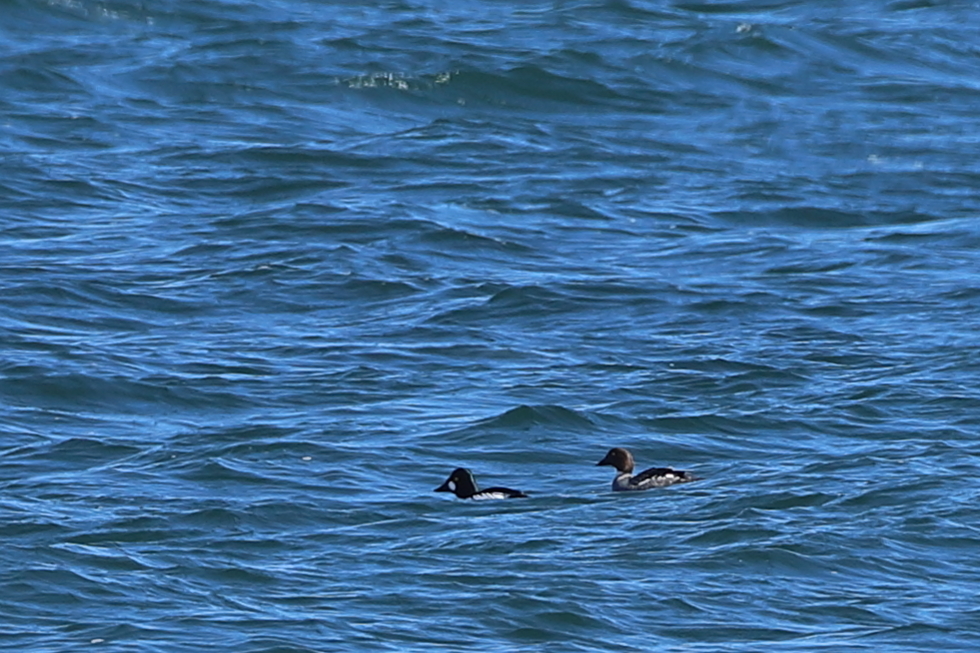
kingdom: Animalia
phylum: Chordata
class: Aves
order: Anseriformes
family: Anatidae
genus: Bucephala
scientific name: Bucephala clangula
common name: Common goldeneye
